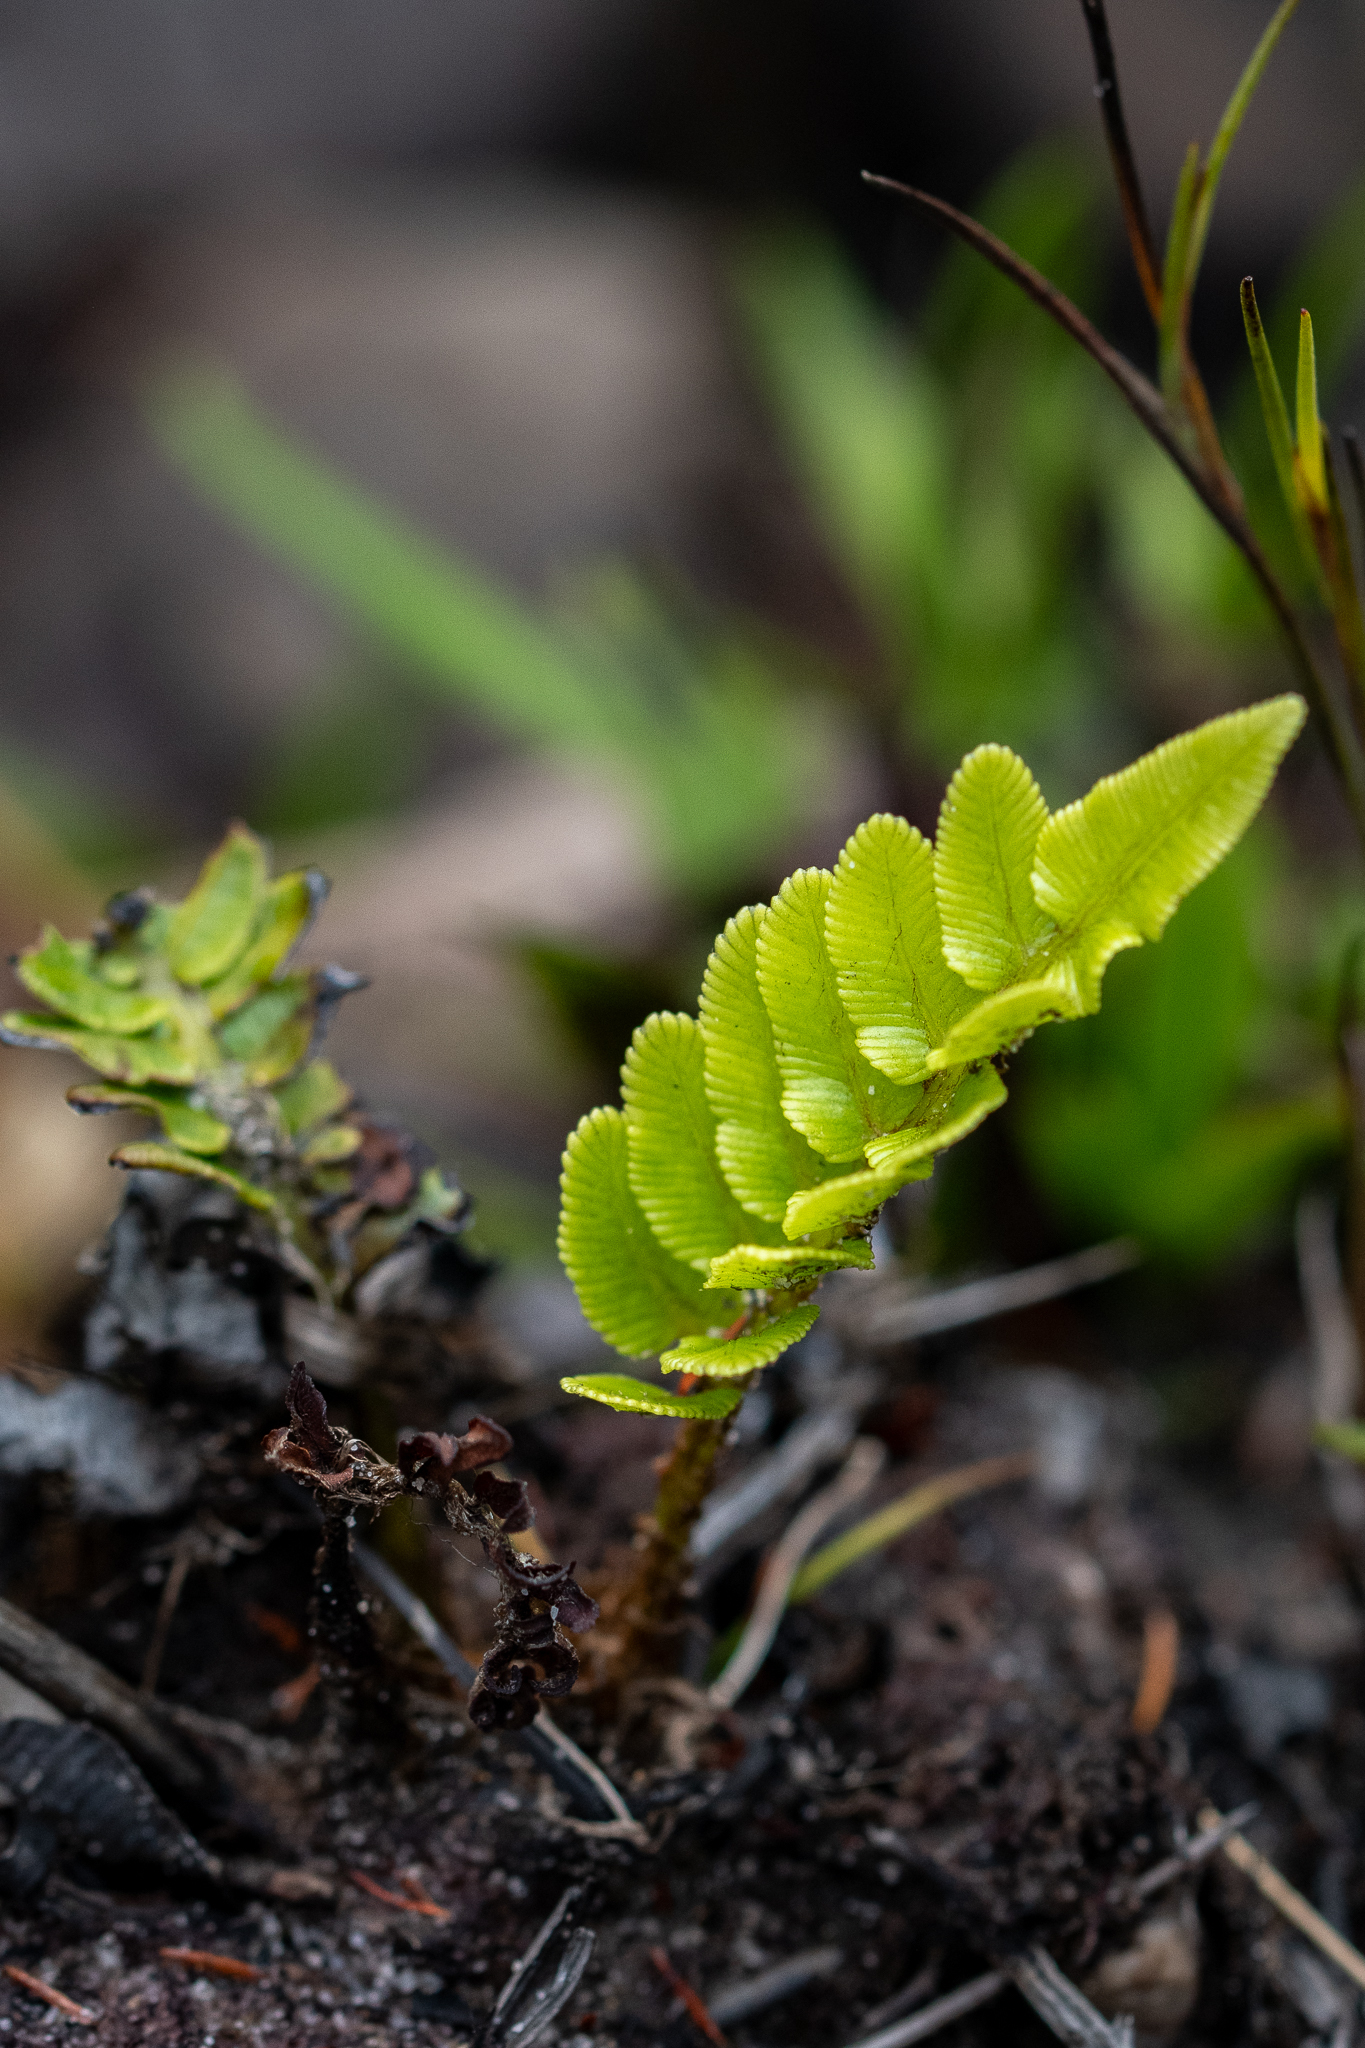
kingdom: Plantae
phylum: Tracheophyta
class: Polypodiopsida
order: Polypodiales
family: Blechnaceae
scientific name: Blechnaceae
